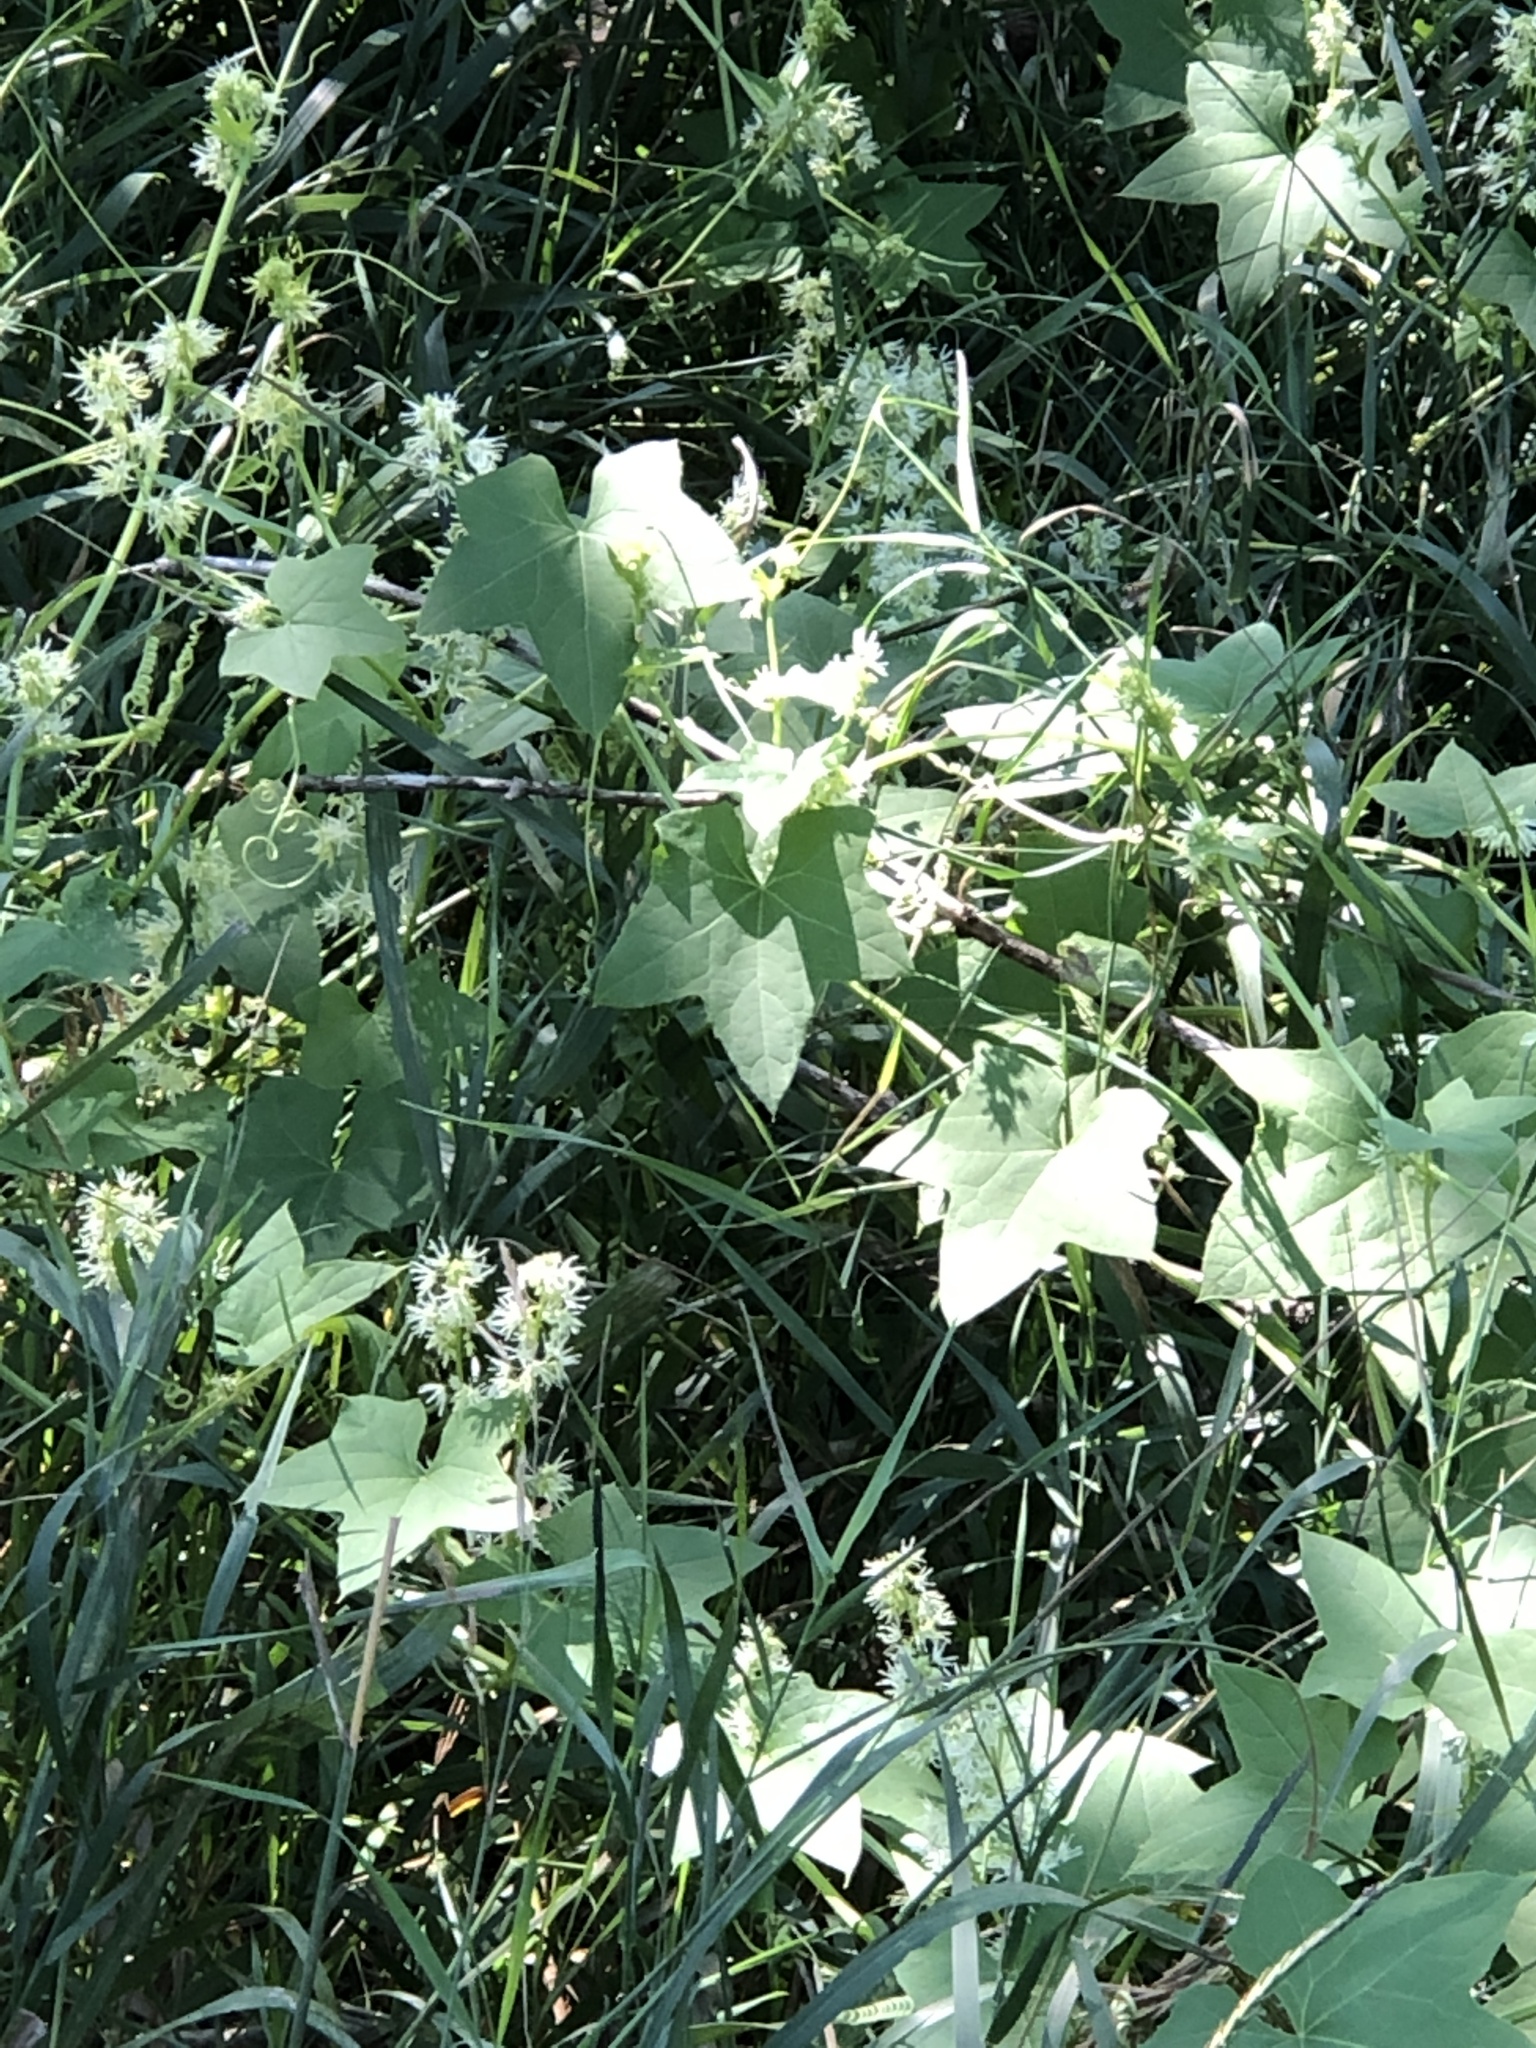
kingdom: Plantae
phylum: Tracheophyta
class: Magnoliopsida
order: Cucurbitales
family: Cucurbitaceae
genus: Echinocystis
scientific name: Echinocystis lobata
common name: Wild cucumber
